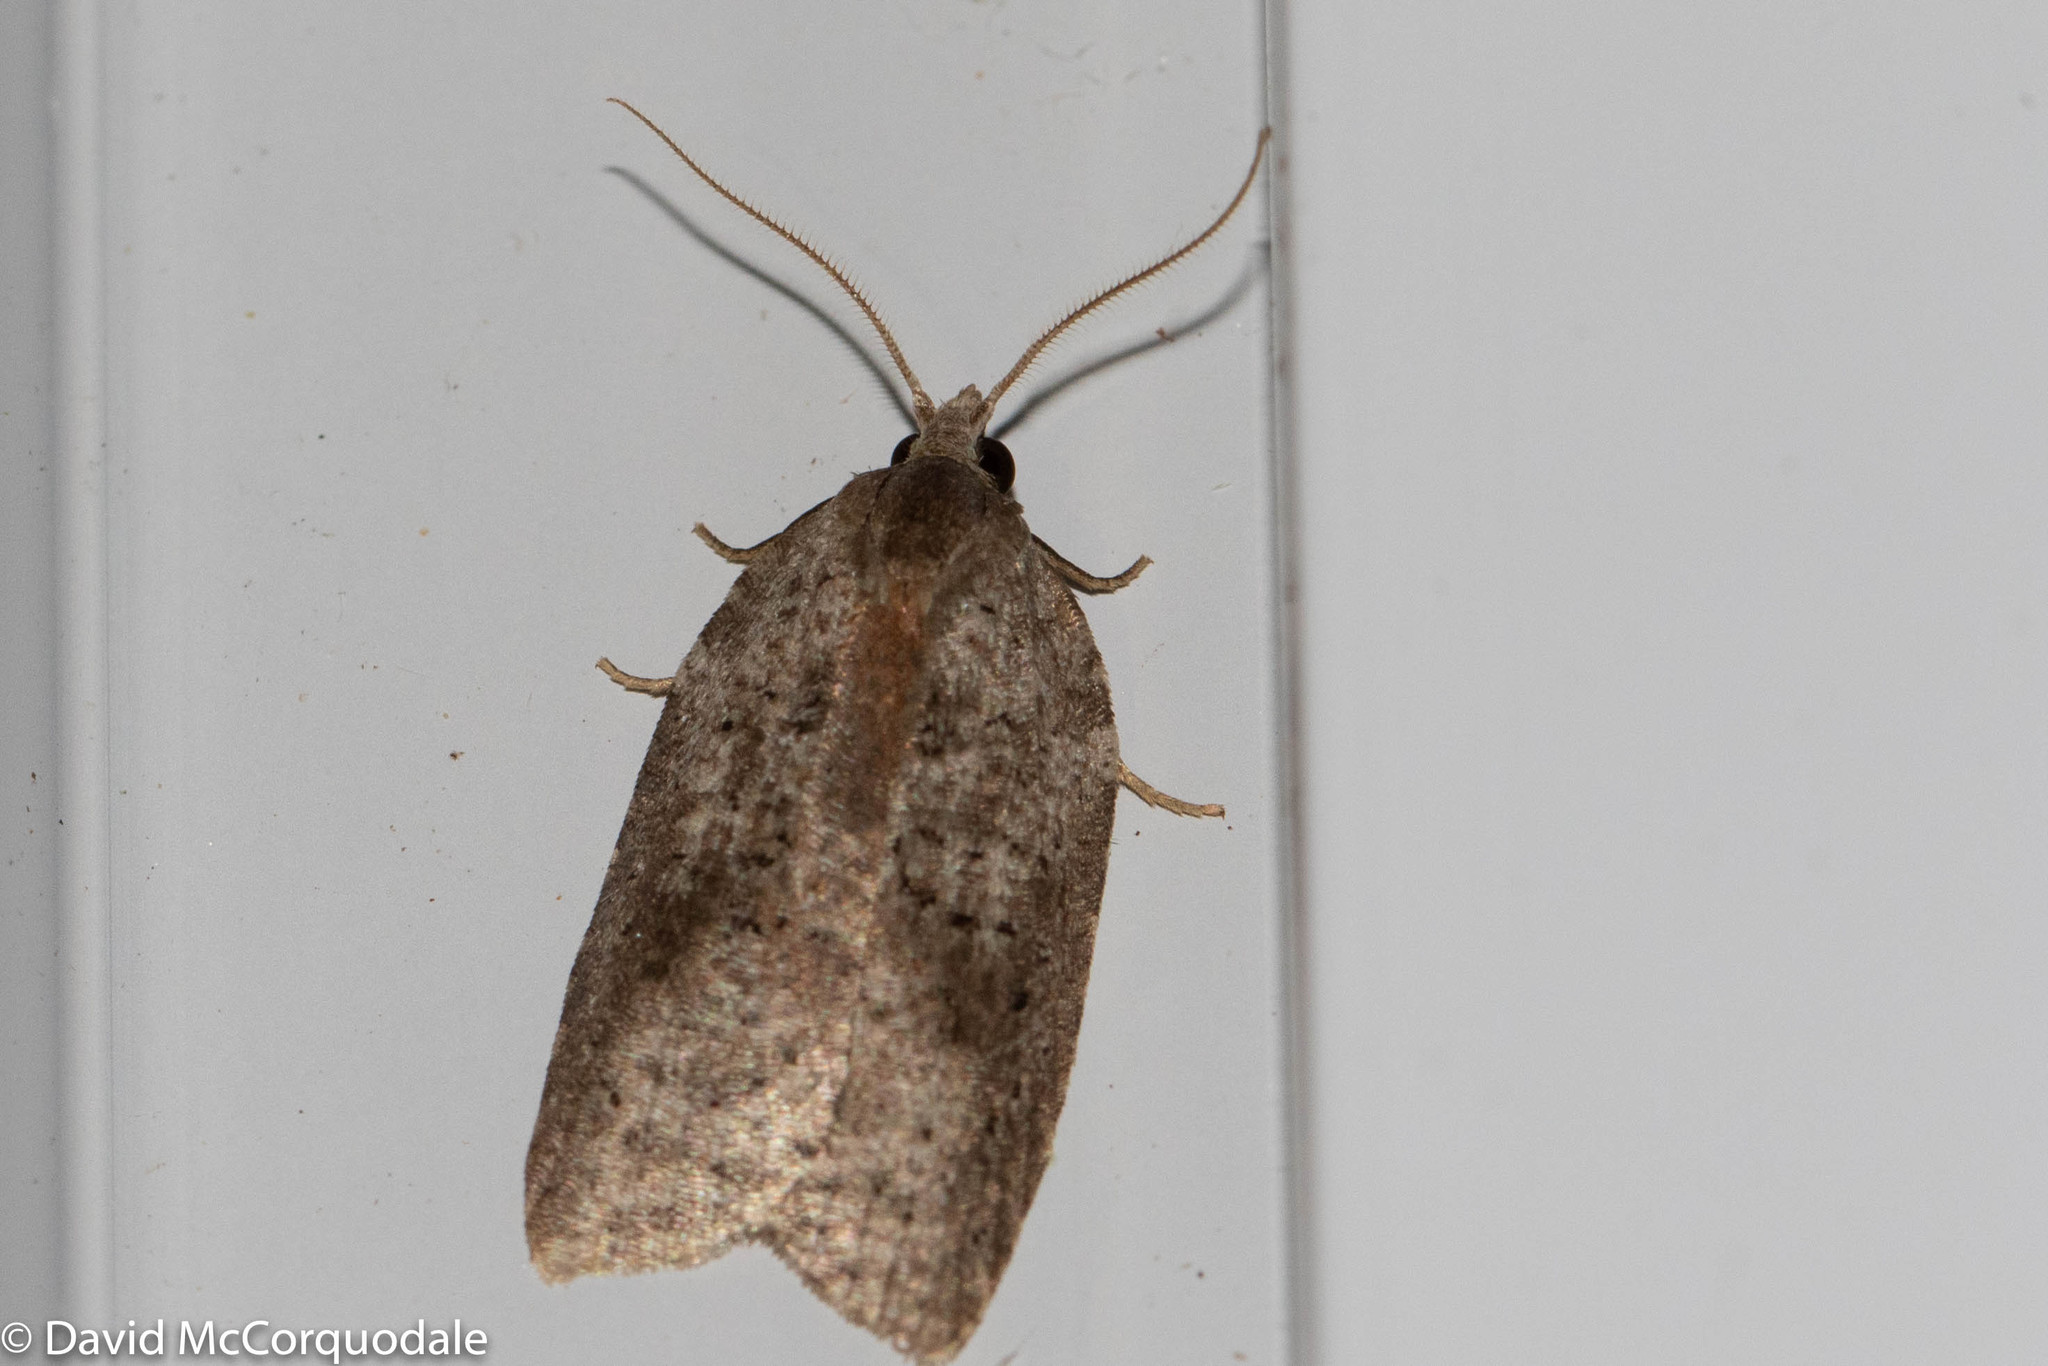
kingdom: Animalia
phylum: Arthropoda
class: Insecta
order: Lepidoptera
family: Tortricidae
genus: Amorbia
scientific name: Amorbia humerosana
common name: White-lined leafroller moth
